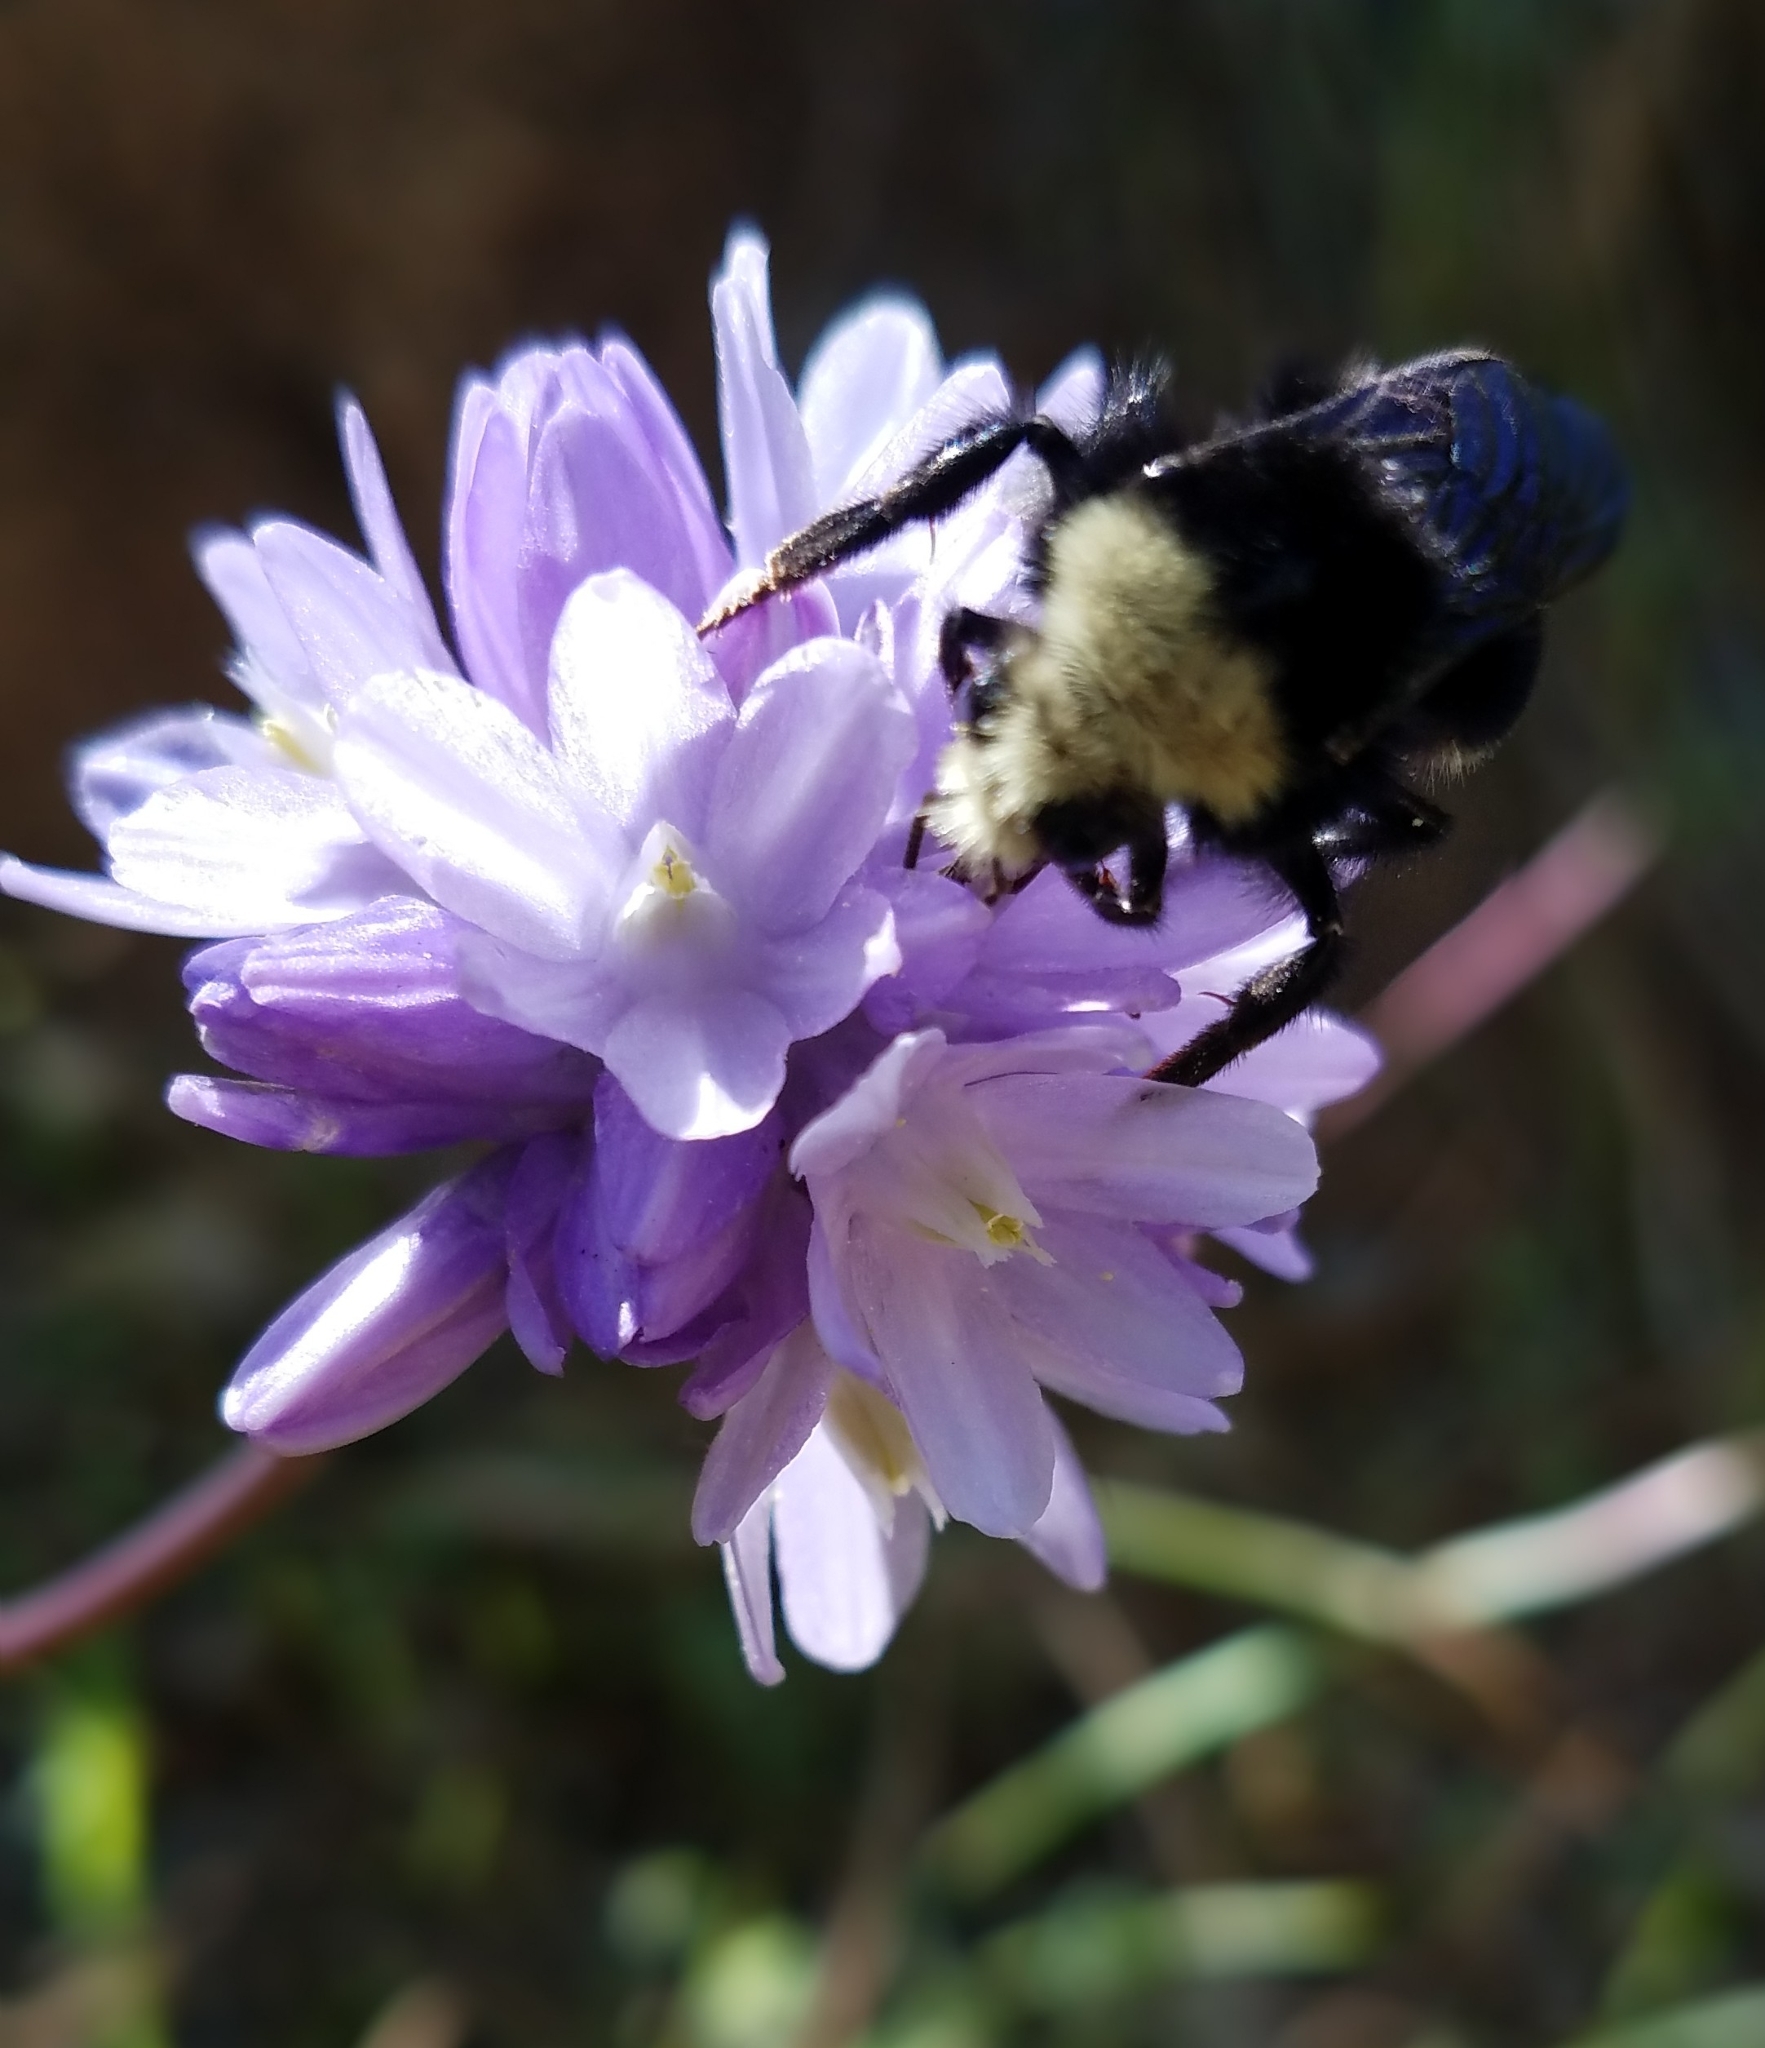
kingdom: Animalia
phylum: Arthropoda
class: Insecta
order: Hymenoptera
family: Apidae
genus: Bombus
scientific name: Bombus vosnesenskii
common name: Vosnesensky bumble bee
